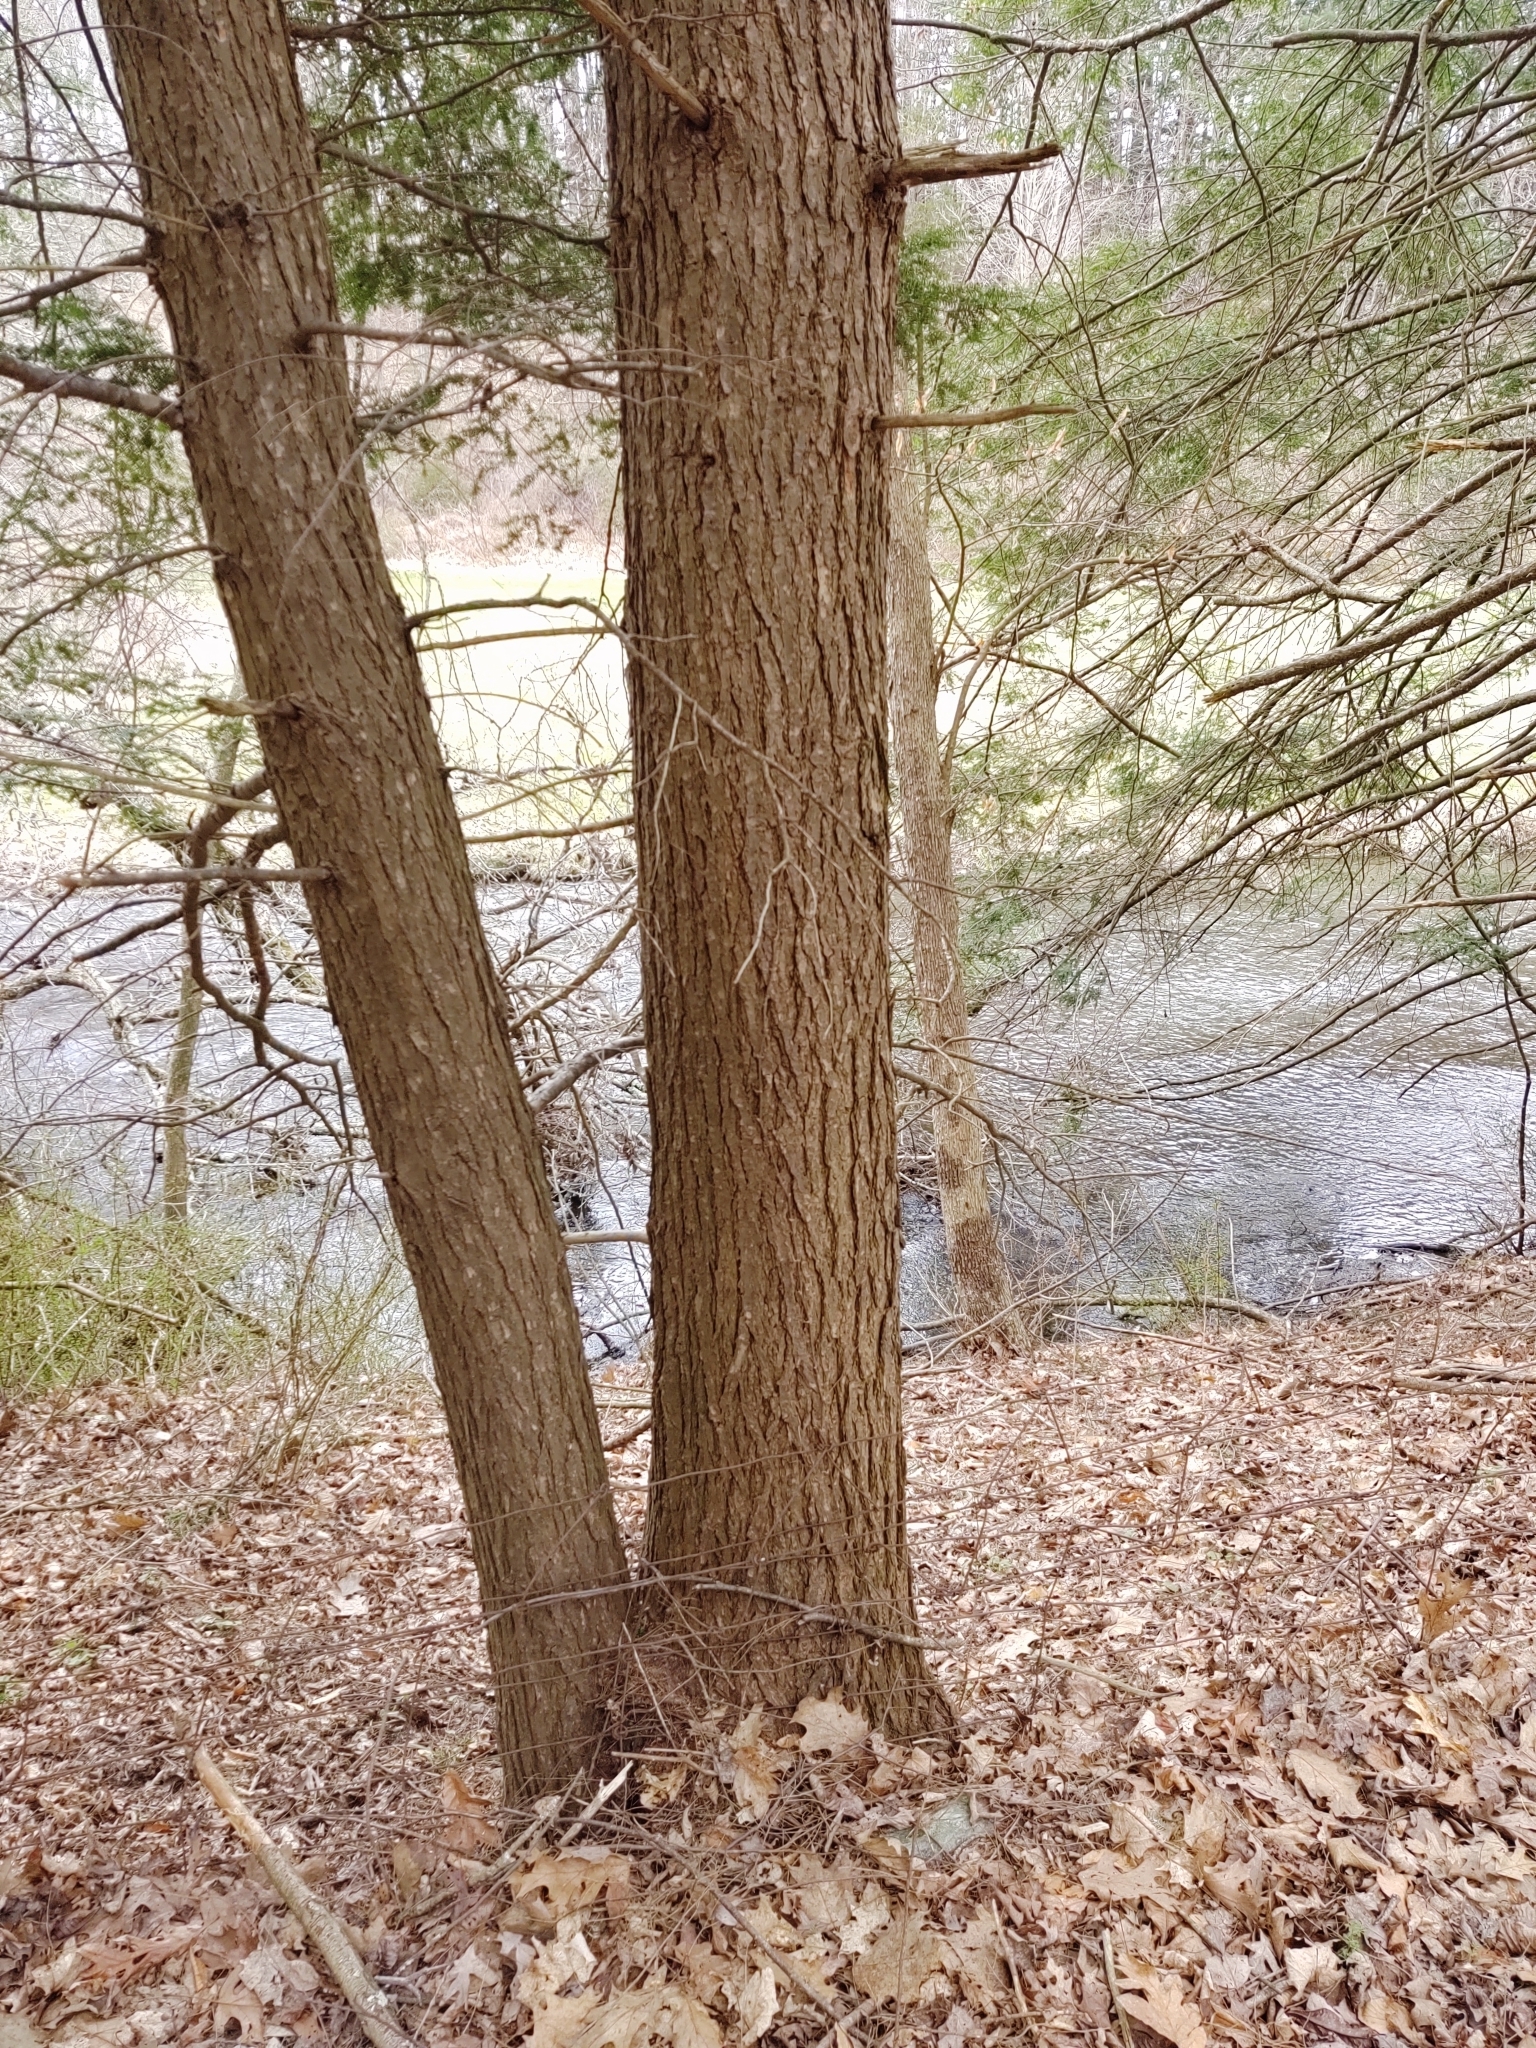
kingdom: Plantae
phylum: Tracheophyta
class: Pinopsida
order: Pinales
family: Pinaceae
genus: Tsuga
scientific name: Tsuga canadensis
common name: Eastern hemlock
